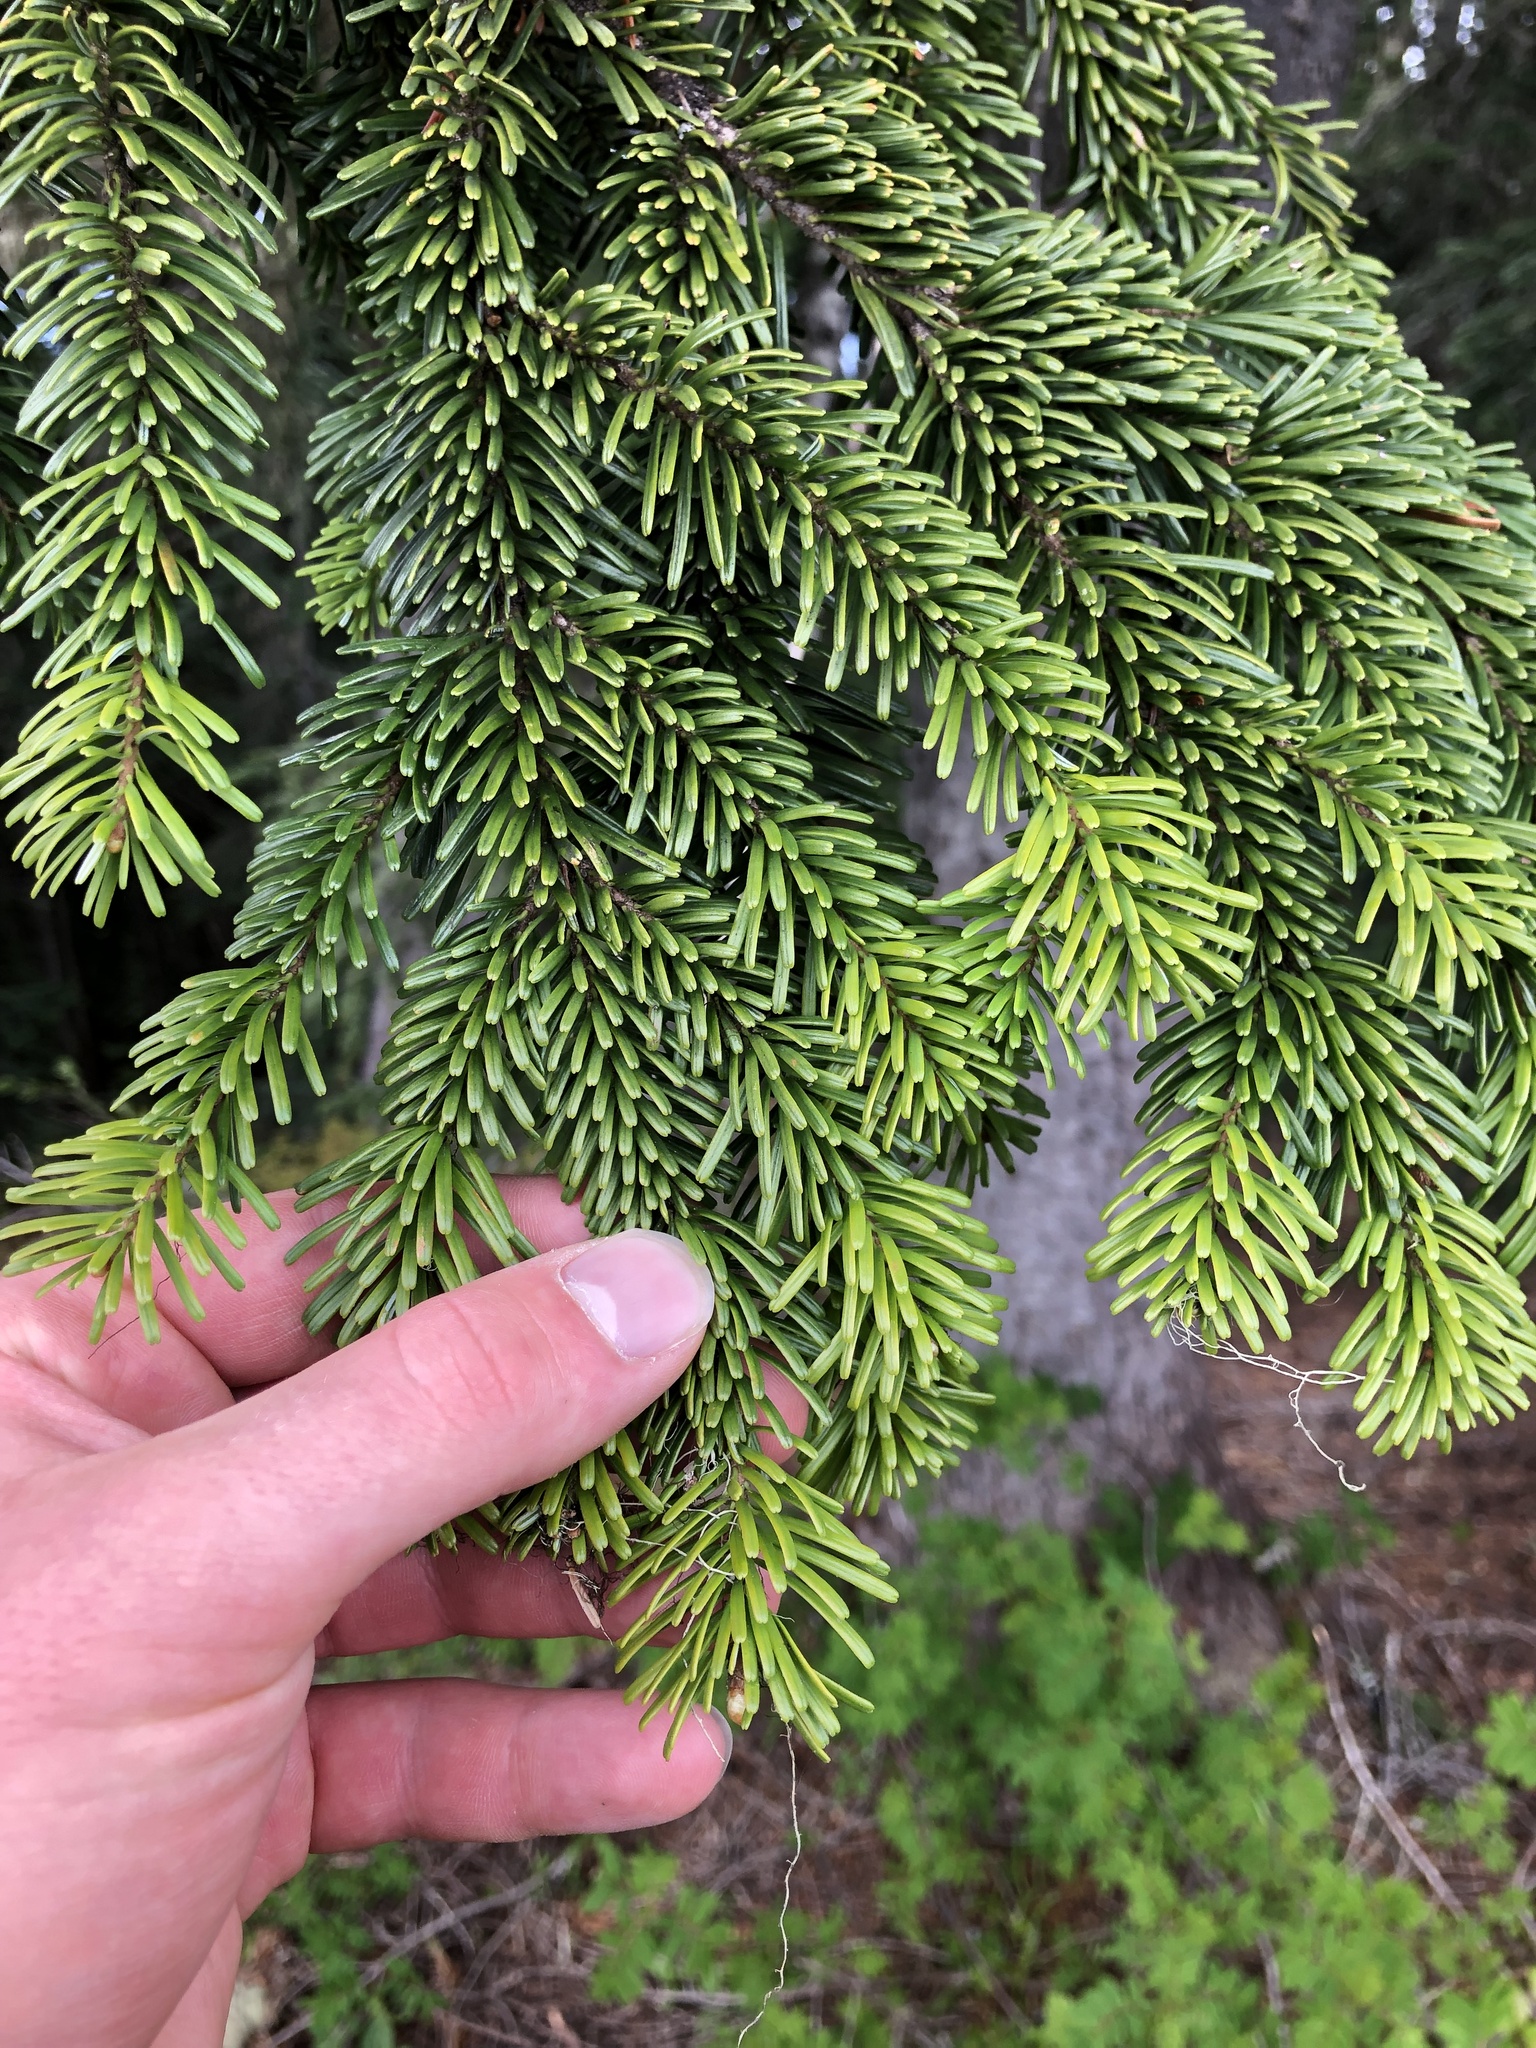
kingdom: Plantae
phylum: Tracheophyta
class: Pinopsida
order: Pinales
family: Pinaceae
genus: Abies
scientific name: Abies amabilis
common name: Pacific silver fir
